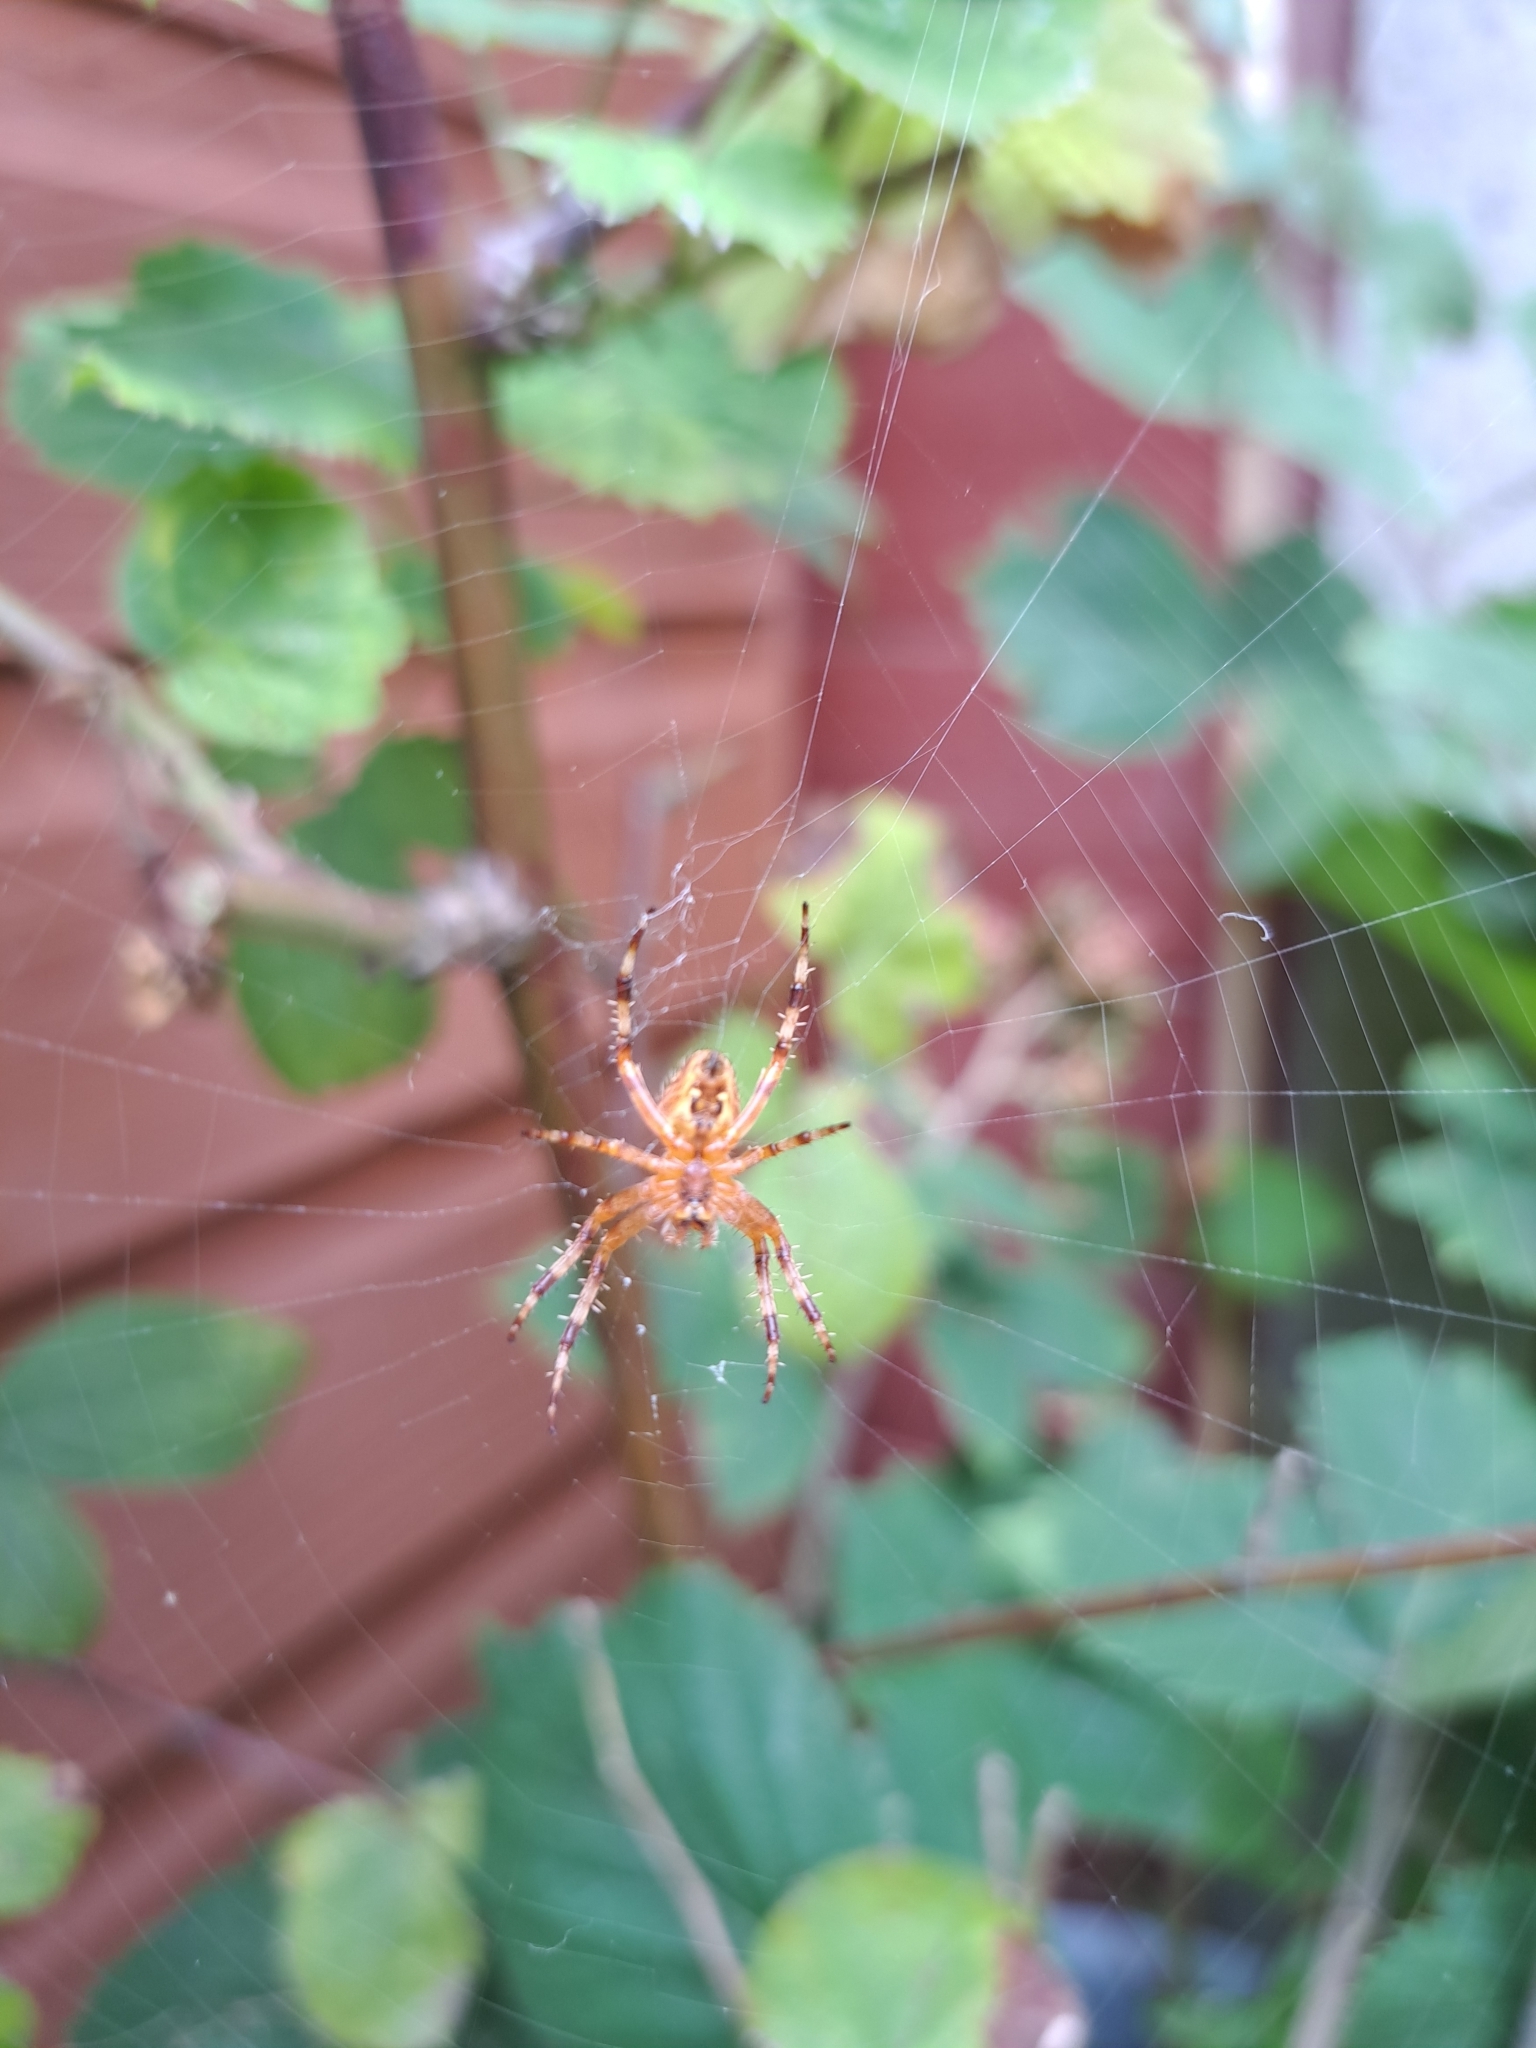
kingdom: Animalia
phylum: Arthropoda
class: Arachnida
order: Araneae
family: Araneidae
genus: Araneus
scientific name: Araneus diadematus
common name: Cross orbweaver
